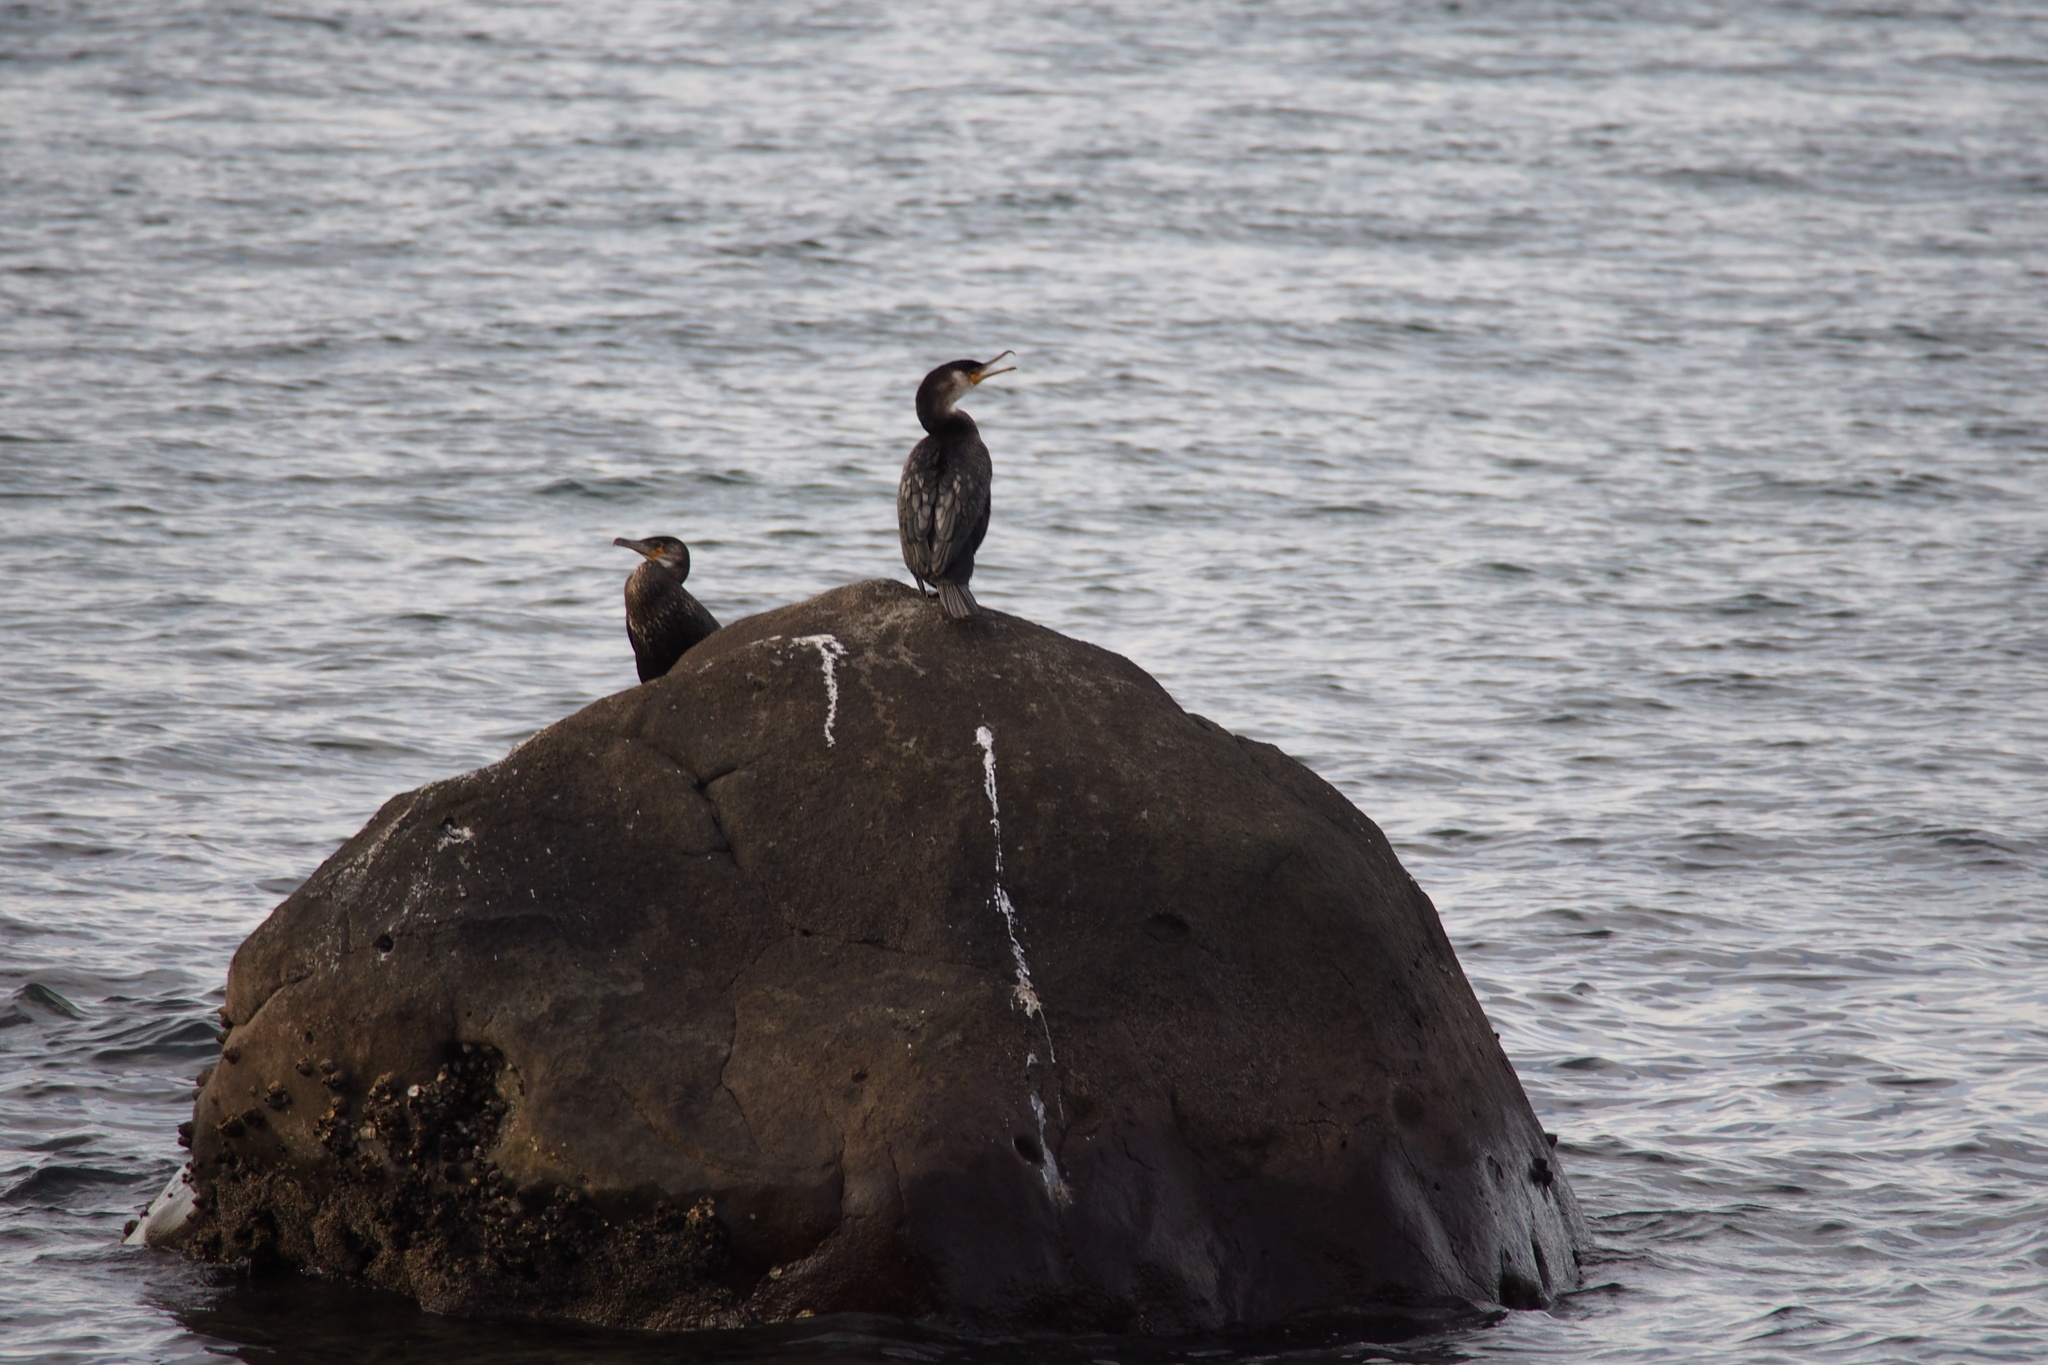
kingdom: Animalia
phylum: Chordata
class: Aves
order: Suliformes
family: Phalacrocoracidae
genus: Phalacrocorax
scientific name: Phalacrocorax capillatus
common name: Japanese cormorant
